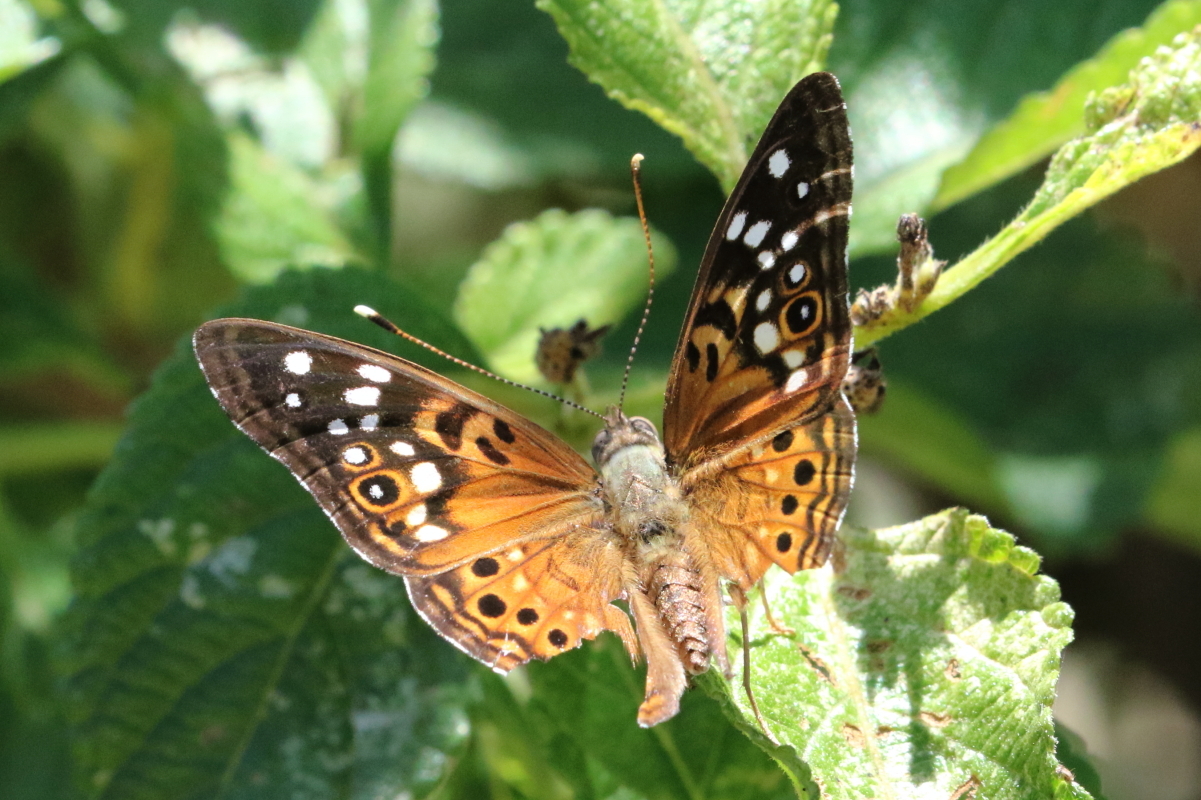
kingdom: Animalia
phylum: Arthropoda
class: Insecta
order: Lepidoptera
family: Nymphalidae
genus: Asterocampa
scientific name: Asterocampa celtis
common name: Hackberry emperor
